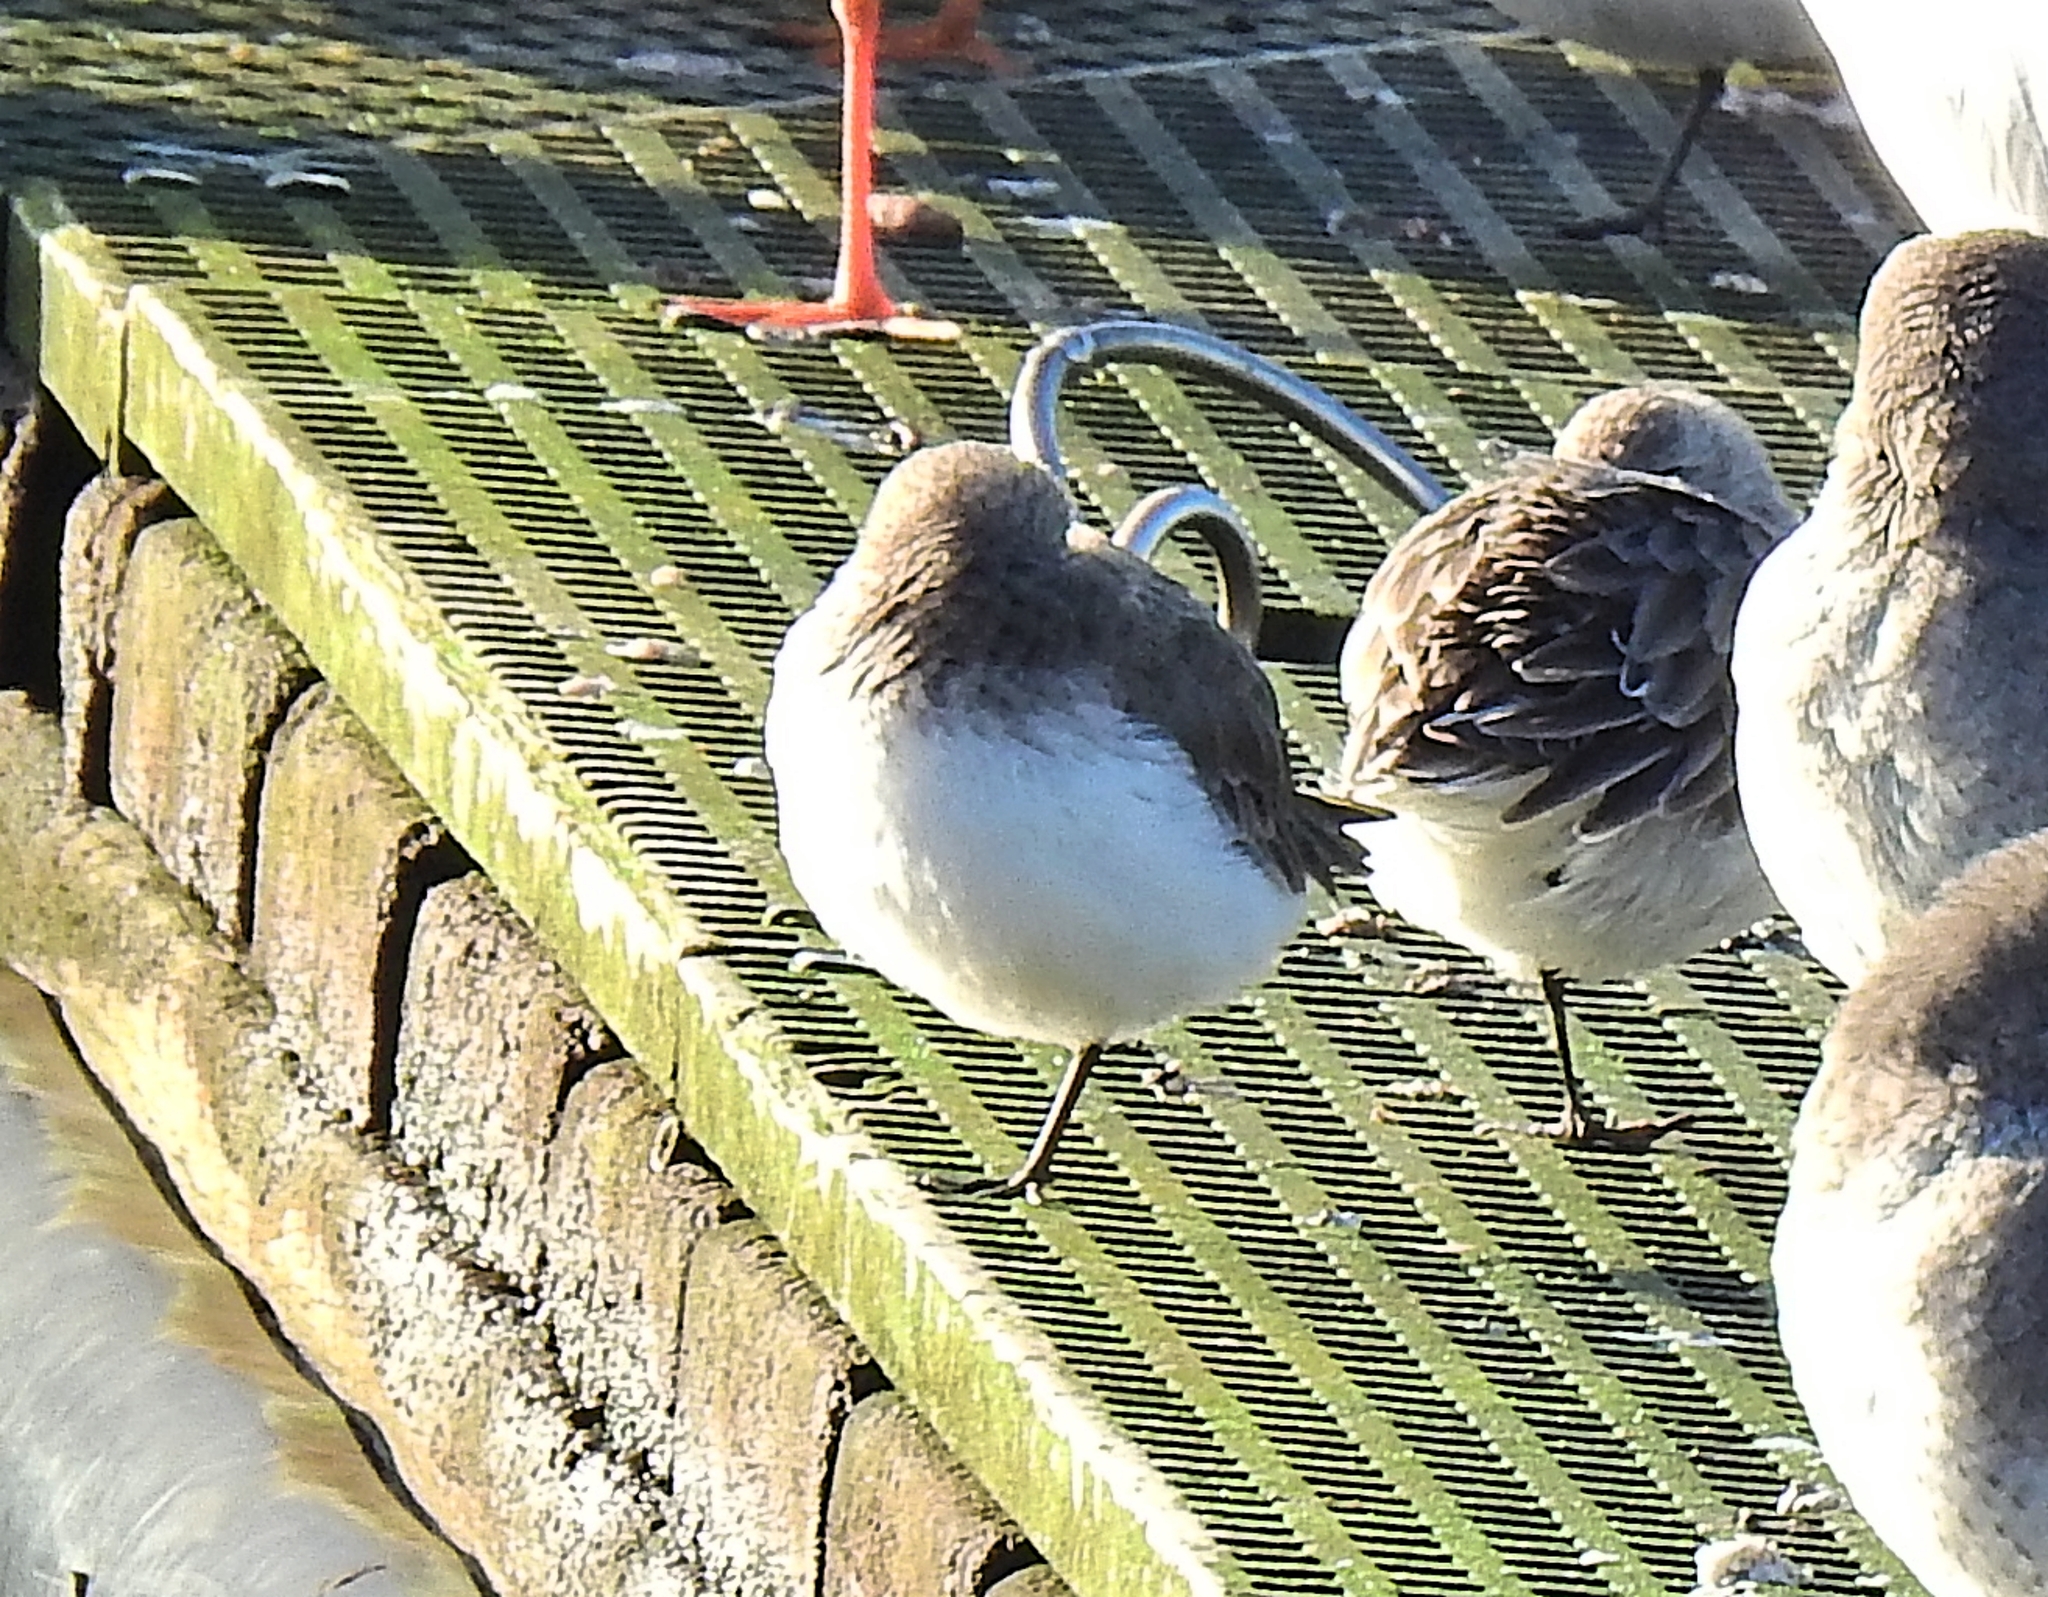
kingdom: Animalia
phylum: Chordata
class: Aves
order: Charadriiformes
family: Scolopacidae
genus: Calidris
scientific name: Calidris alpina
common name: Dunlin
